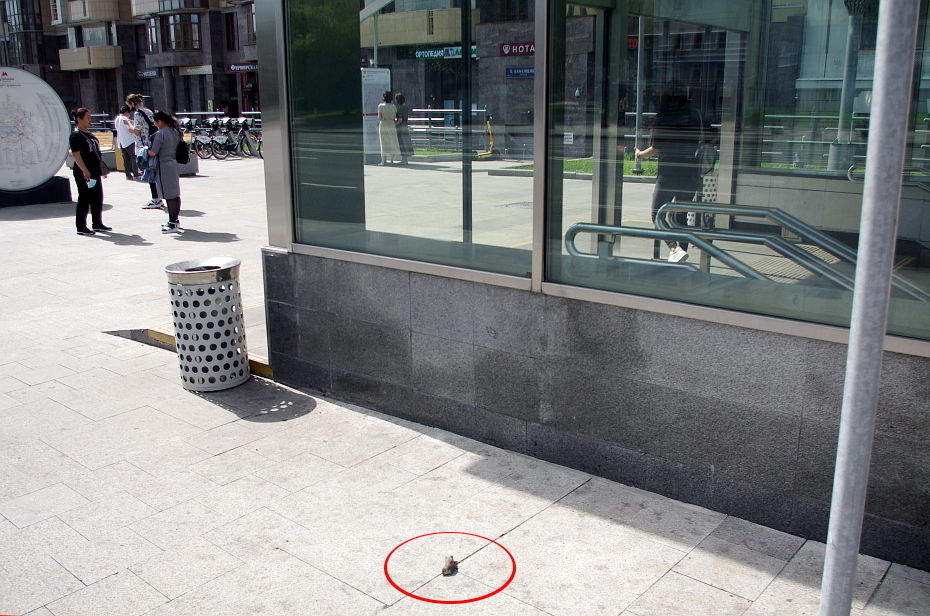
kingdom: Animalia
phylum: Chordata
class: Aves
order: Passeriformes
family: Muscicapidae
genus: Ficedula
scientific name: Ficedula hypoleuca
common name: European pied flycatcher
